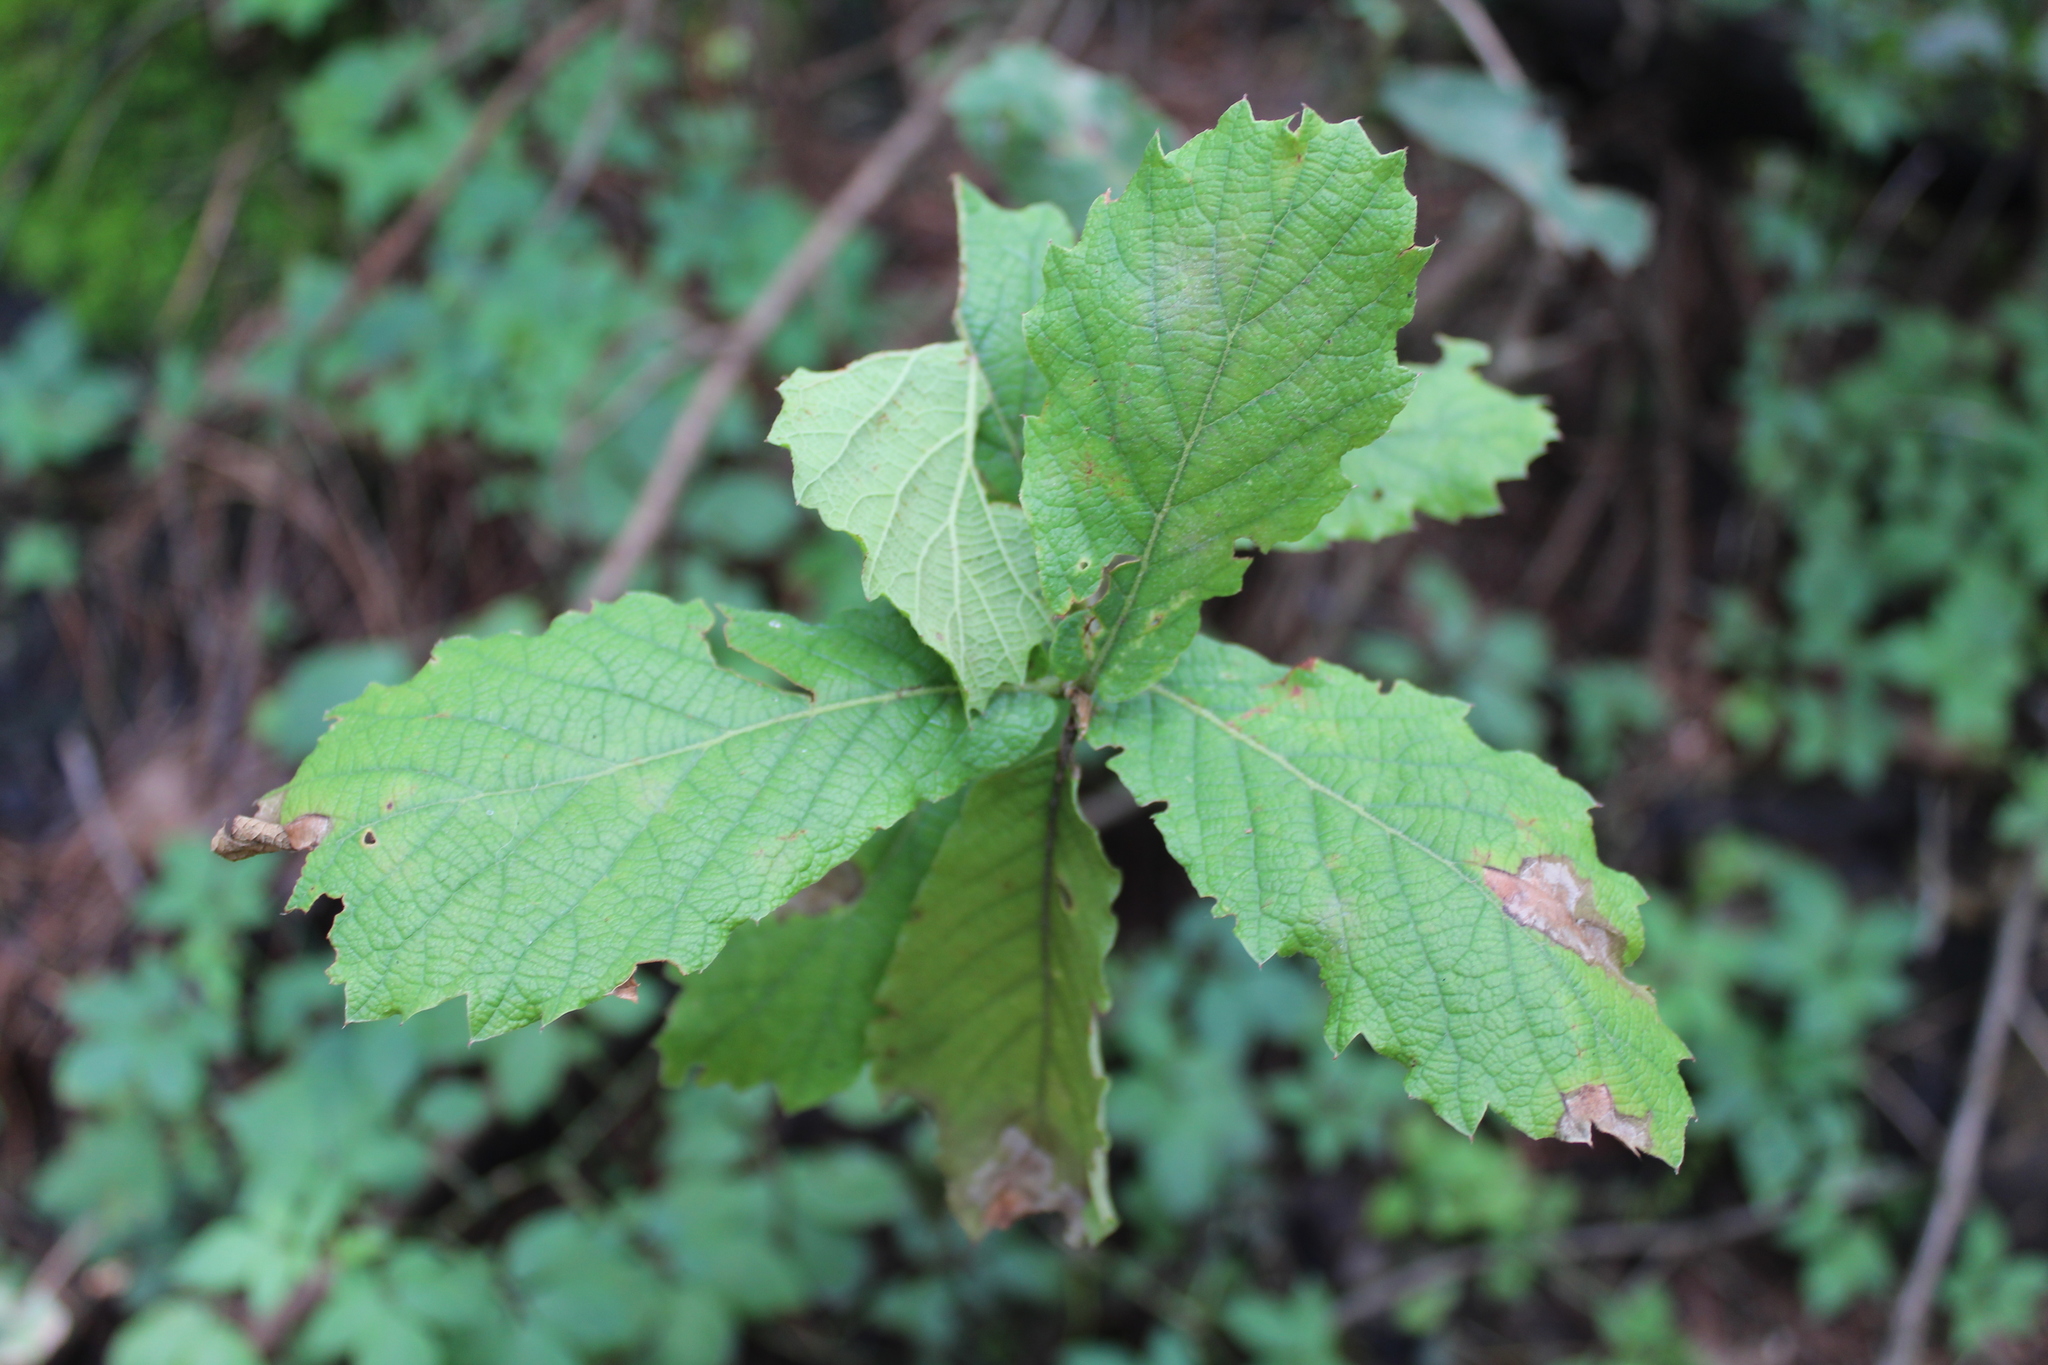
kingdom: Plantae
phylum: Tracheophyta
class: Magnoliopsida
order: Fagales
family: Fagaceae
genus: Quercus
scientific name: Quercus crassifolia
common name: Leather leaf mexican oak
